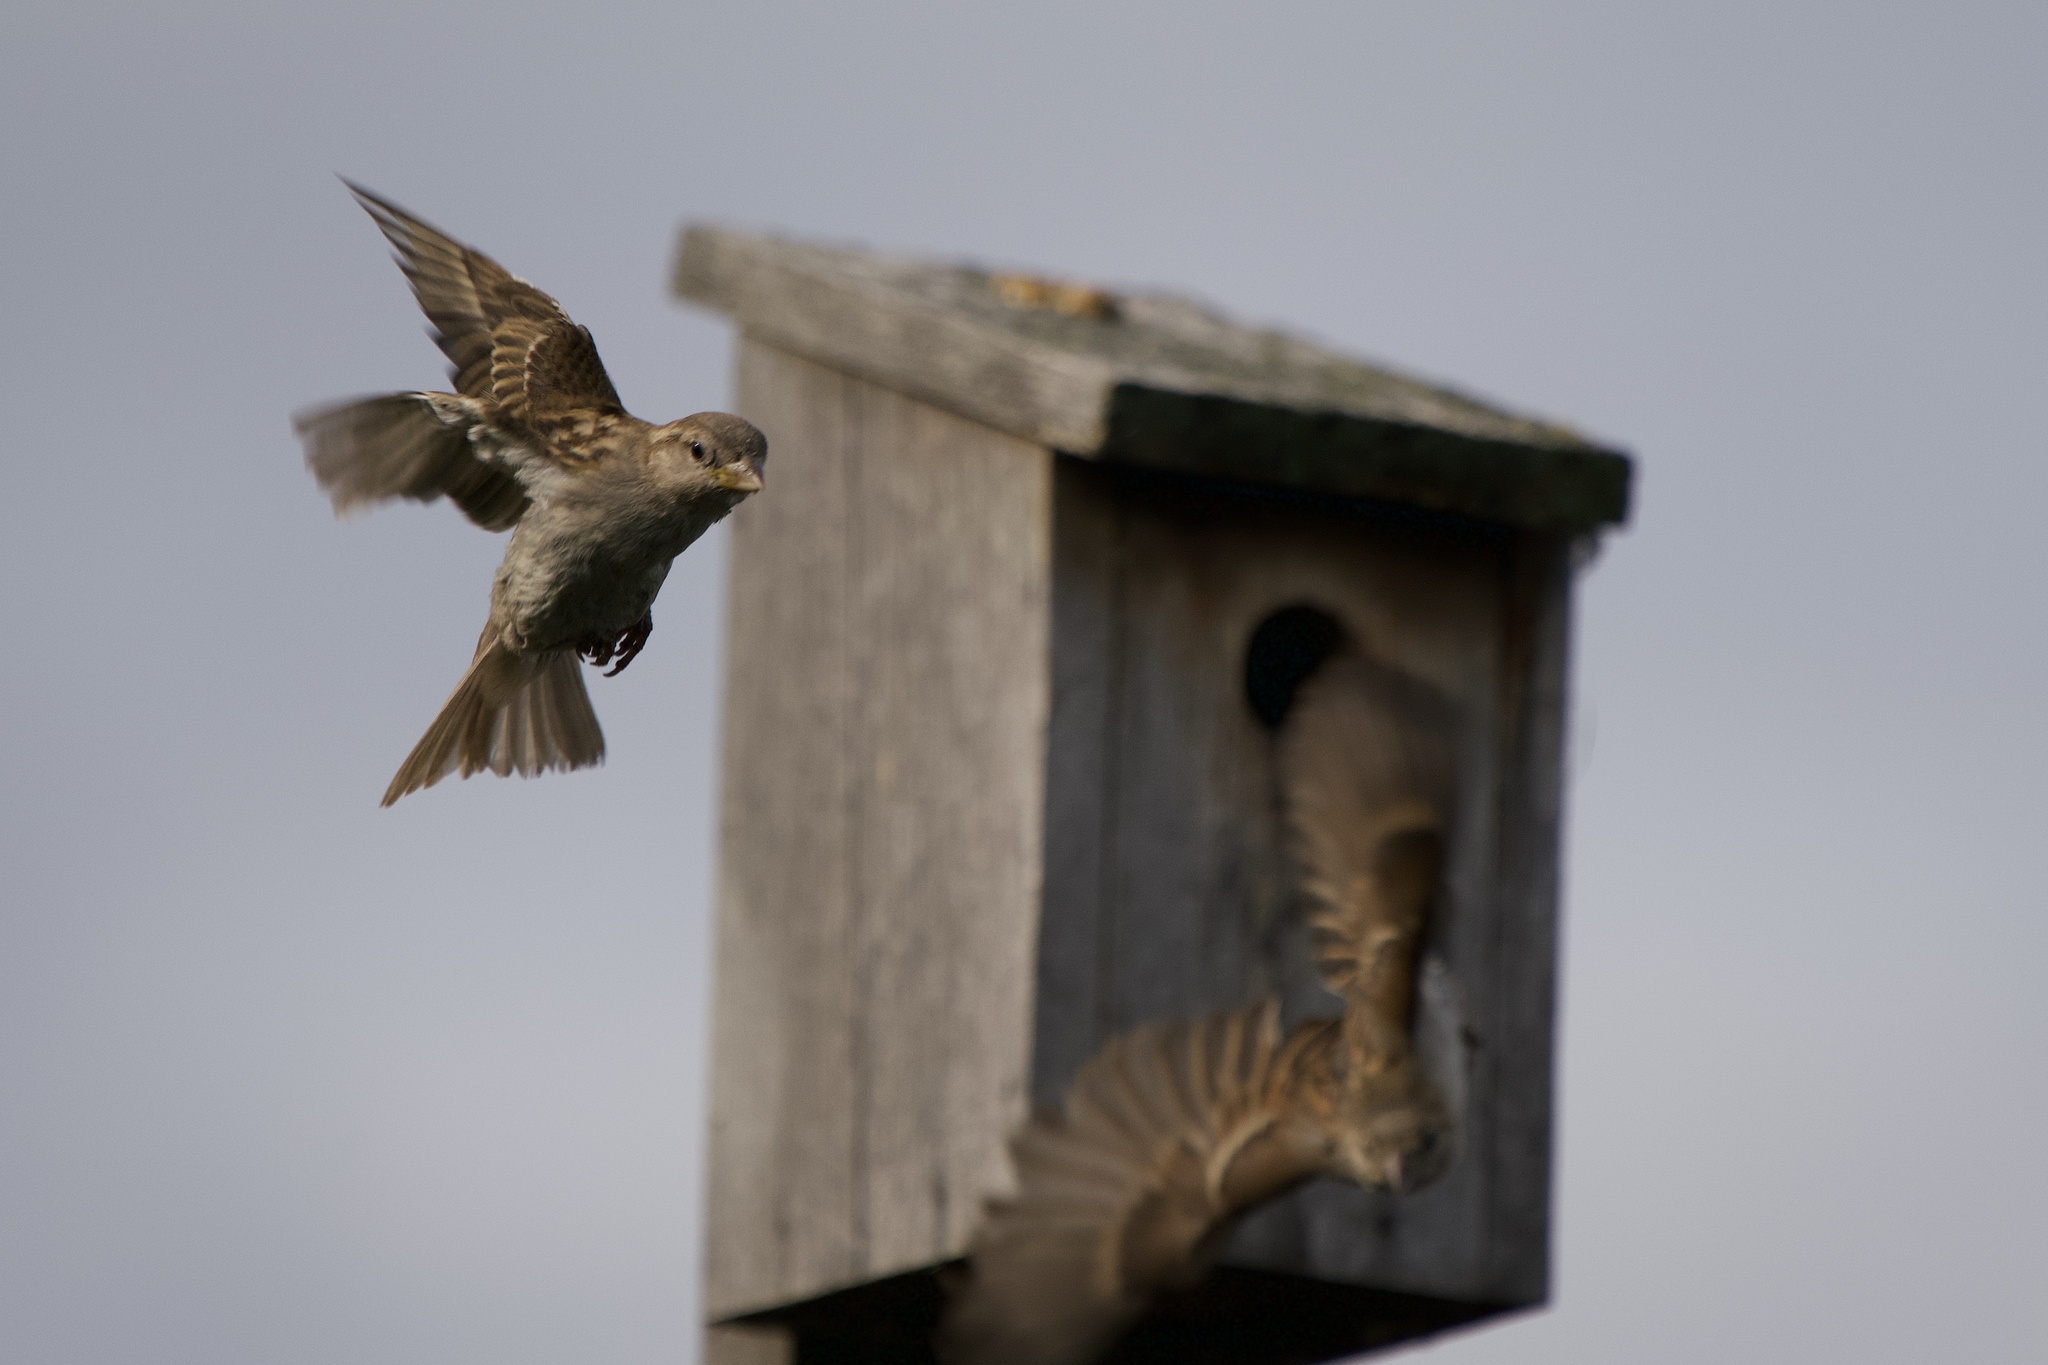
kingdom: Animalia
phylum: Chordata
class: Aves
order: Passeriformes
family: Passeridae
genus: Passer
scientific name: Passer domesticus
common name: House sparrow
